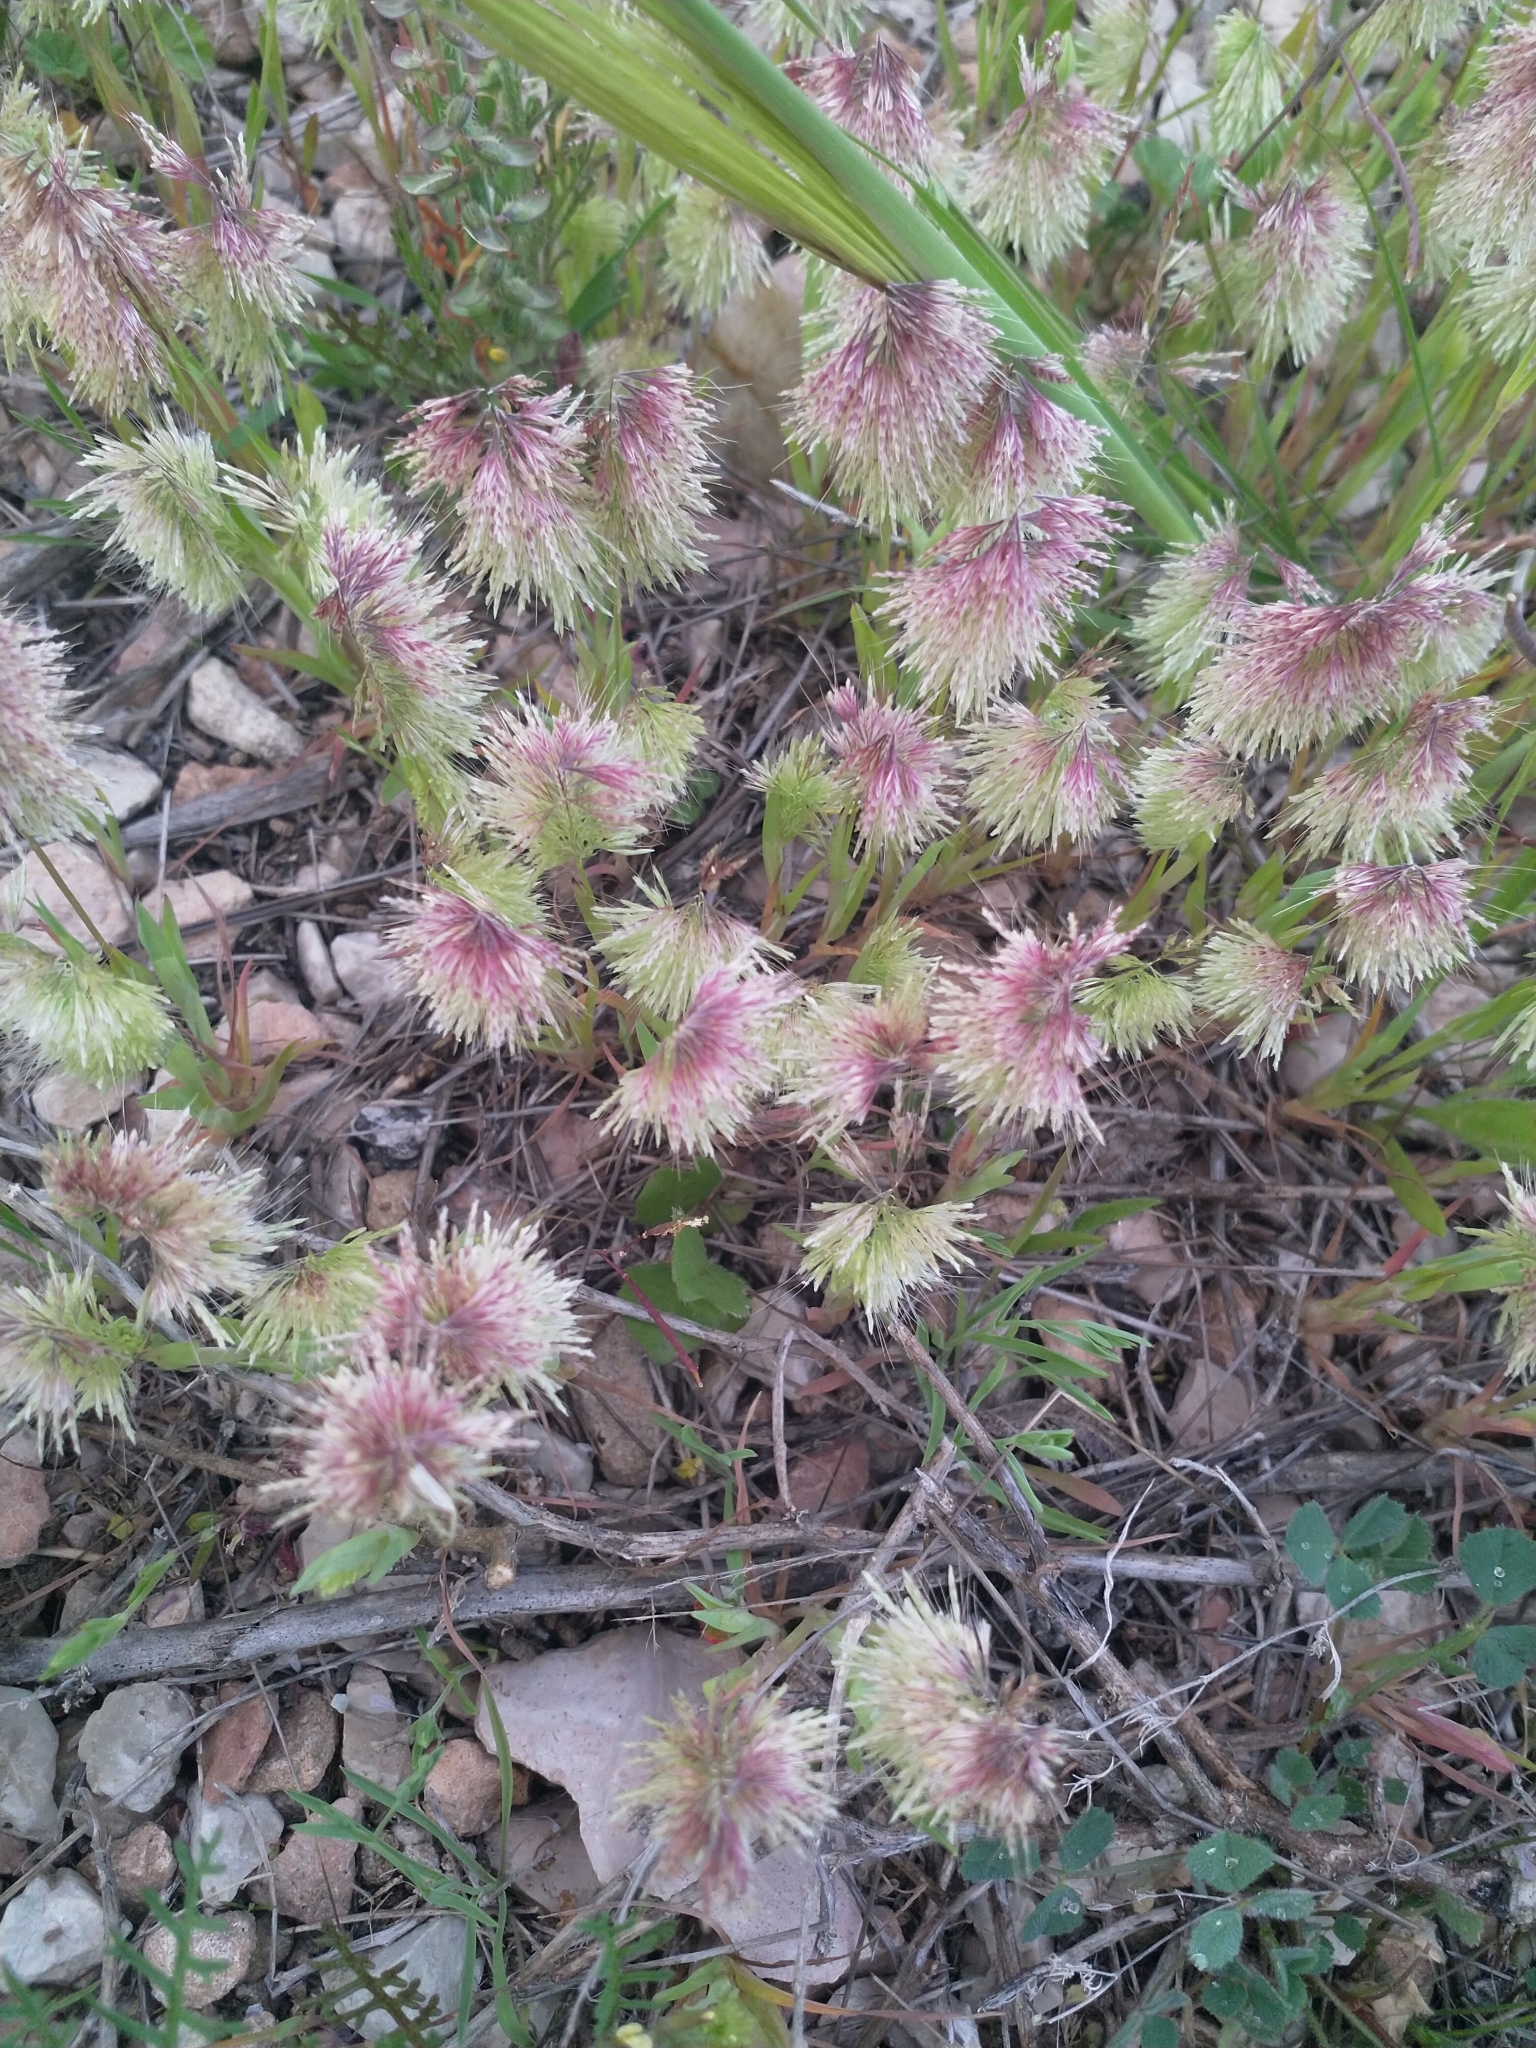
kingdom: Plantae
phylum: Tracheophyta
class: Liliopsida
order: Poales
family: Poaceae
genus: Lamarckia
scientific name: Lamarckia aurea
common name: Golden dog's-tail
